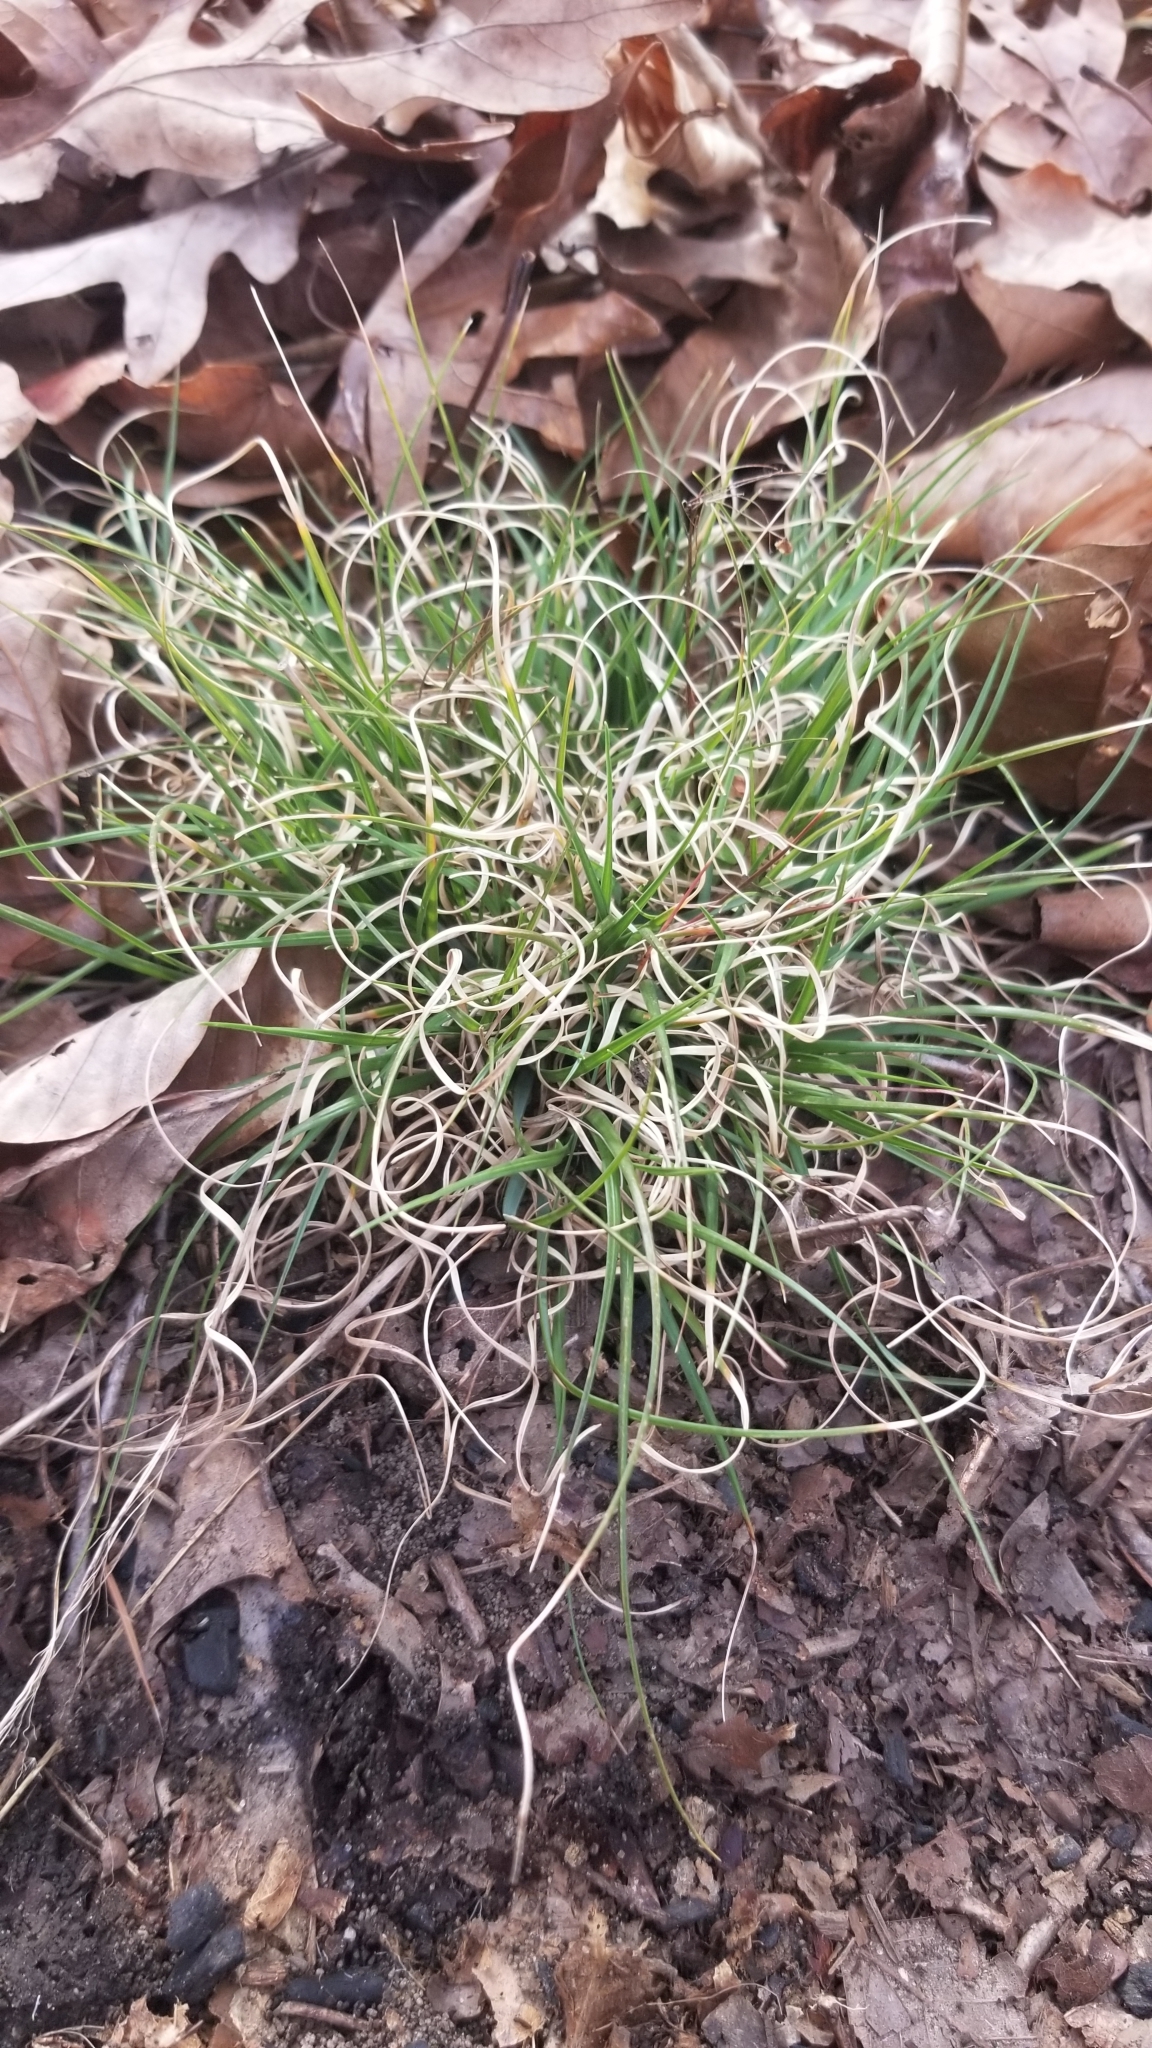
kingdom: Plantae
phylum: Tracheophyta
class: Liliopsida
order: Poales
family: Poaceae
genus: Danthonia
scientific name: Danthonia spicata
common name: Common wild oatgrass
